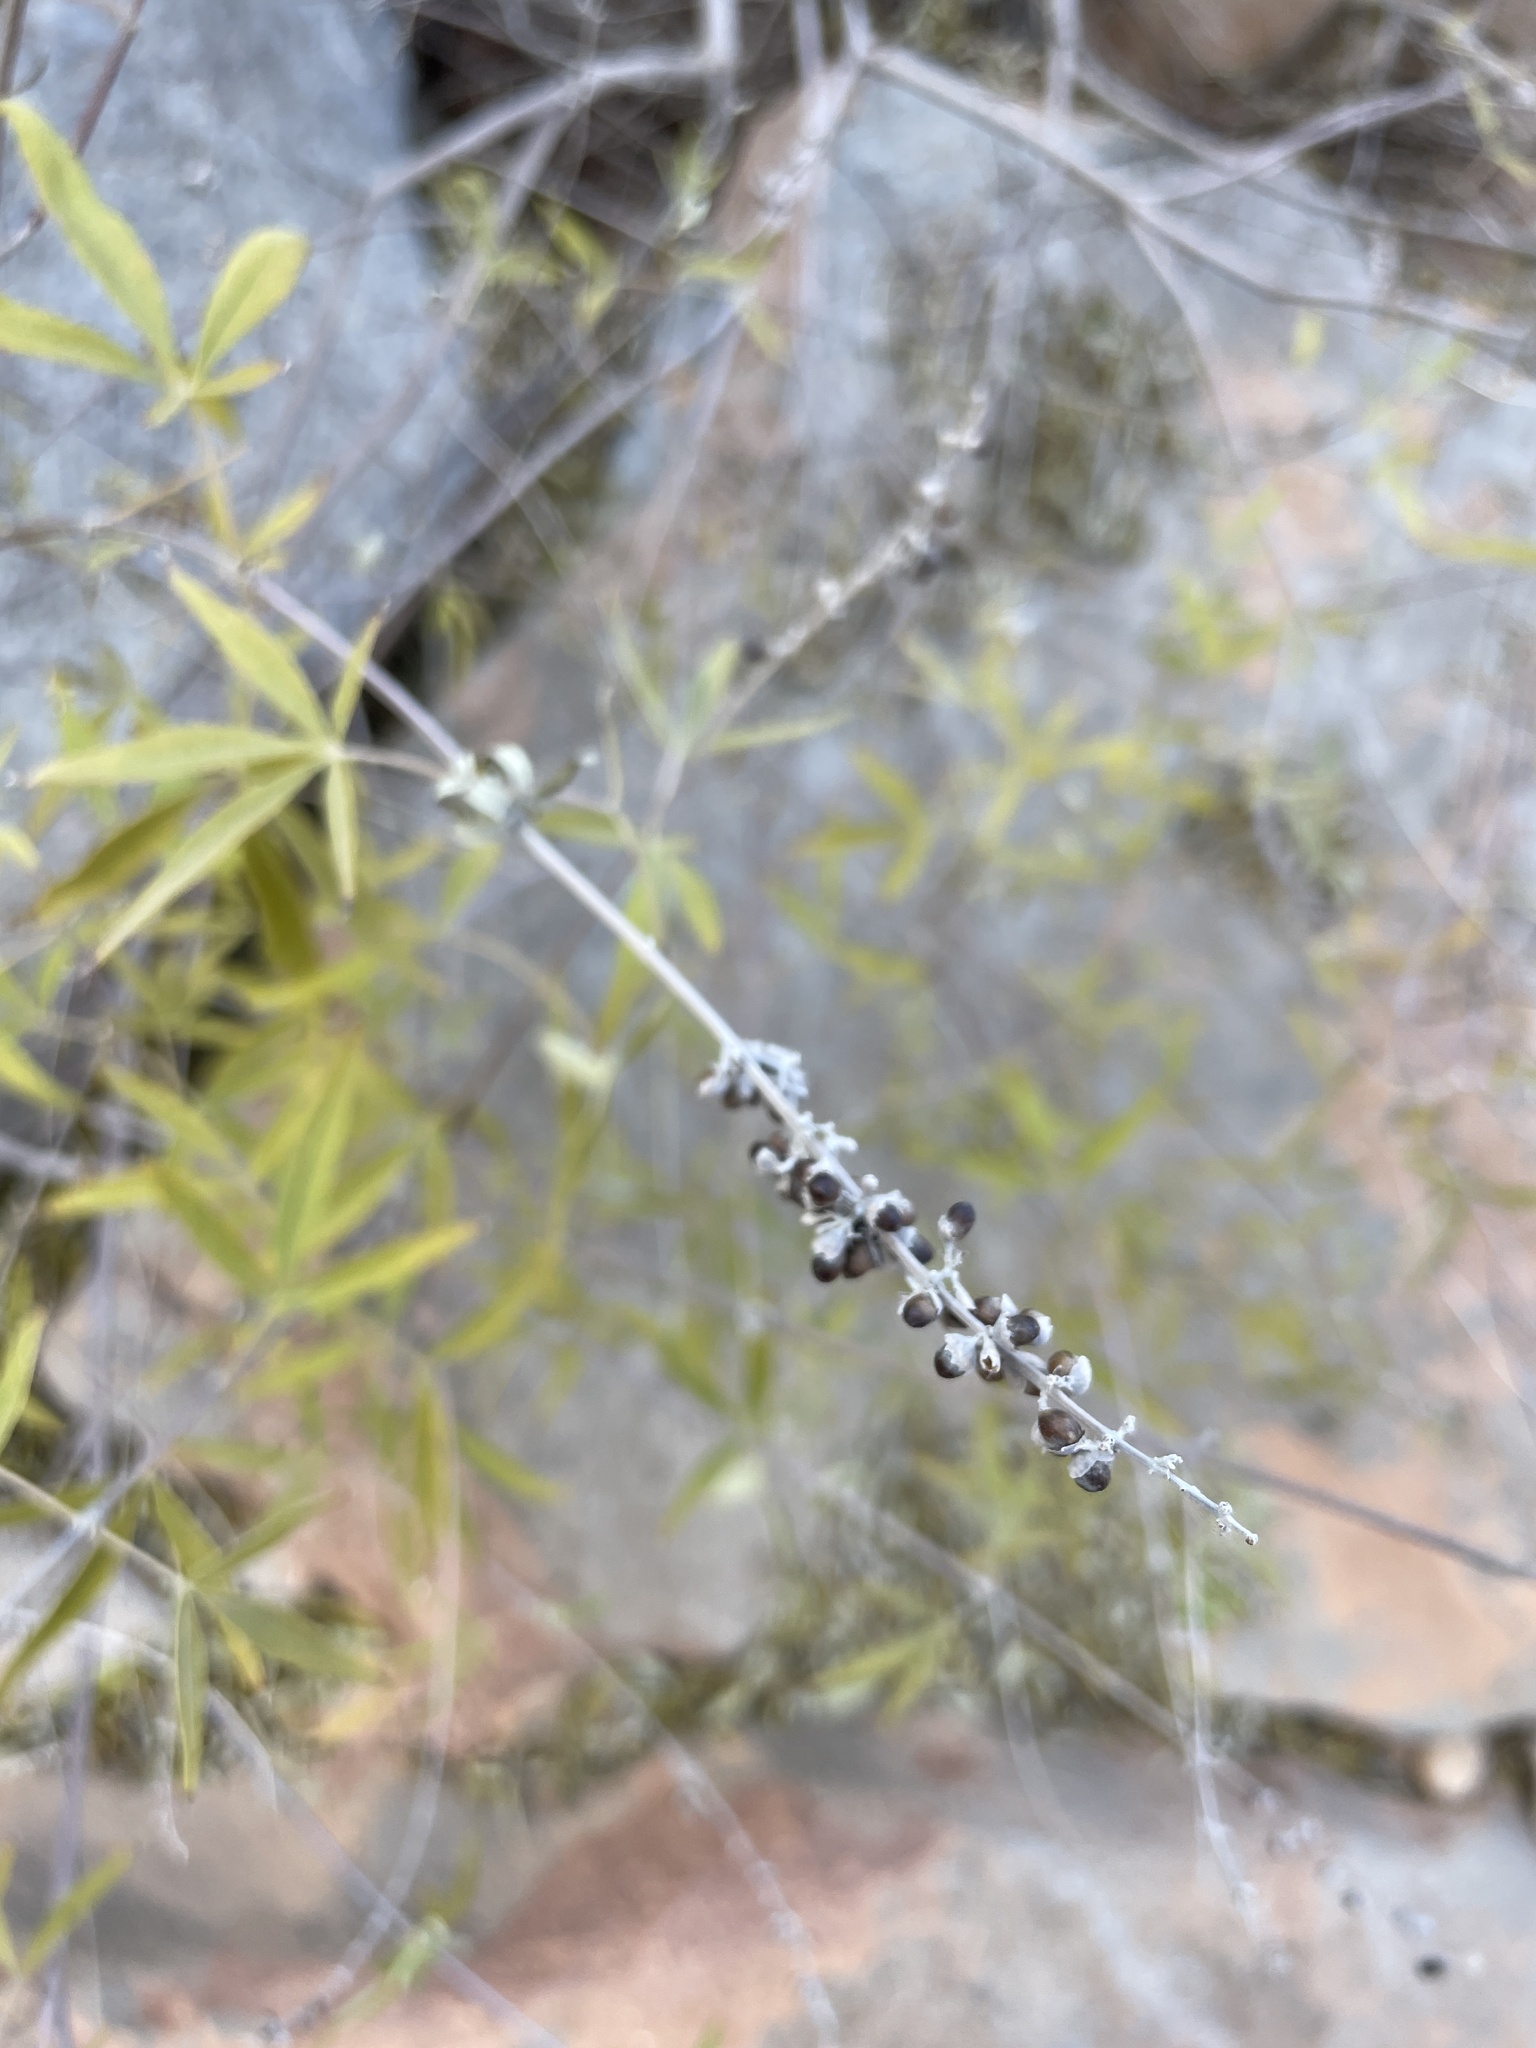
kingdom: Plantae
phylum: Tracheophyta
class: Magnoliopsida
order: Lamiales
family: Lamiaceae
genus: Vitex
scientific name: Vitex agnus-castus
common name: Chasteberry
